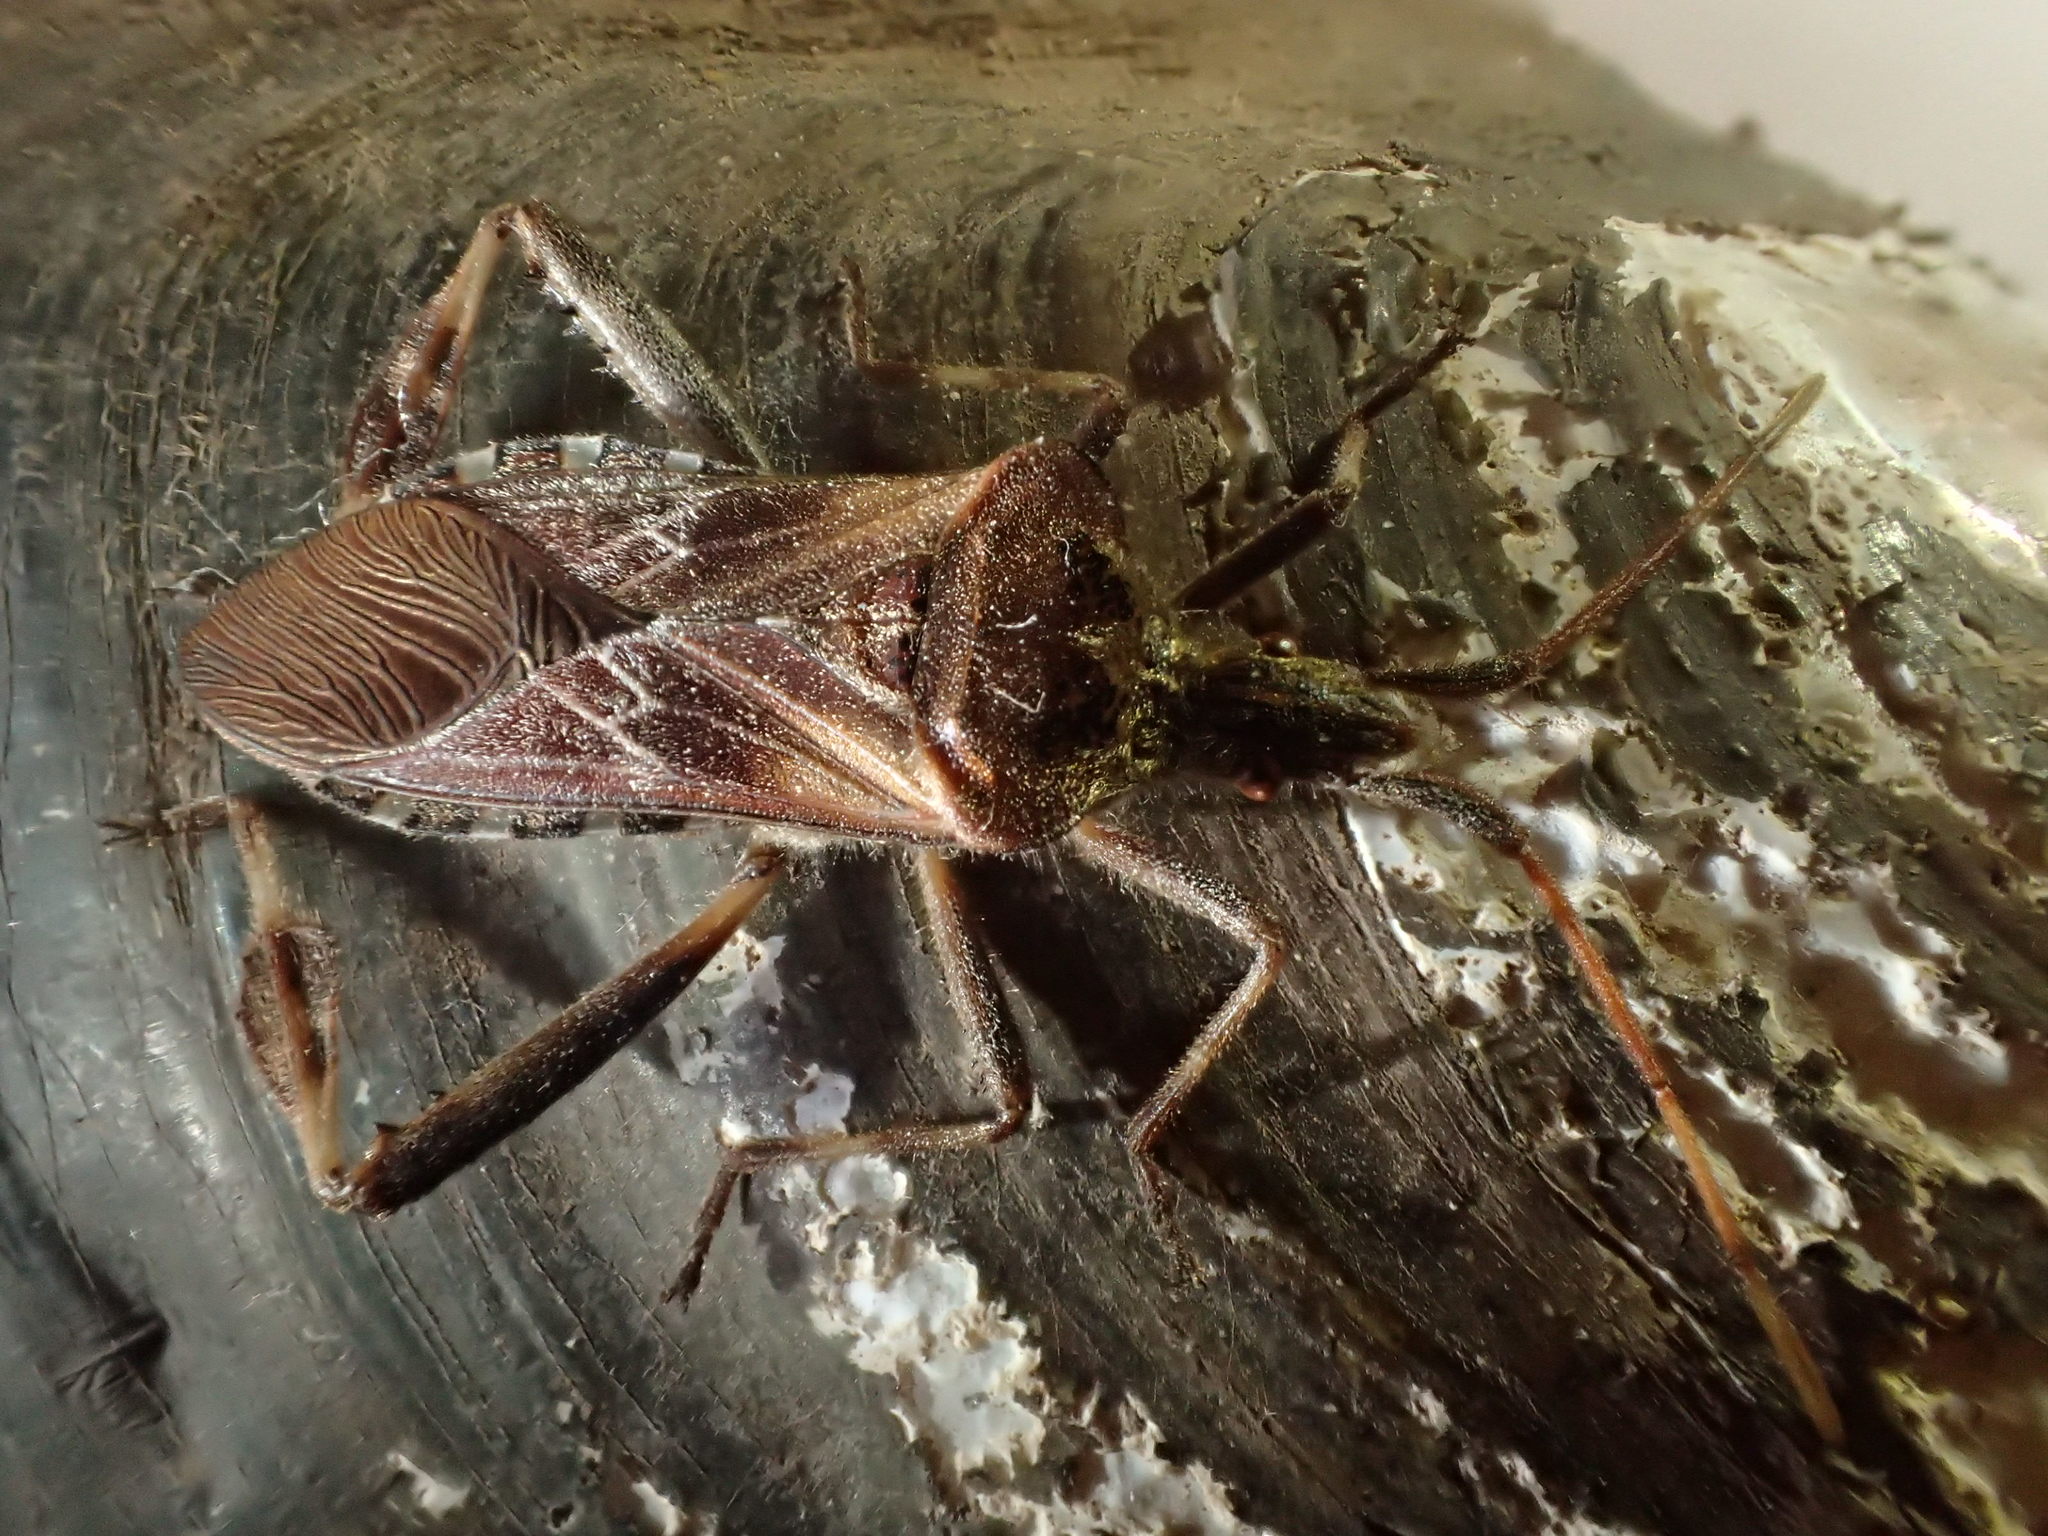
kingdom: Animalia
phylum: Arthropoda
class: Insecta
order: Hemiptera
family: Coreidae
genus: Leptoglossus
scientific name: Leptoglossus occidentalis
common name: Western conifer-seed bug
